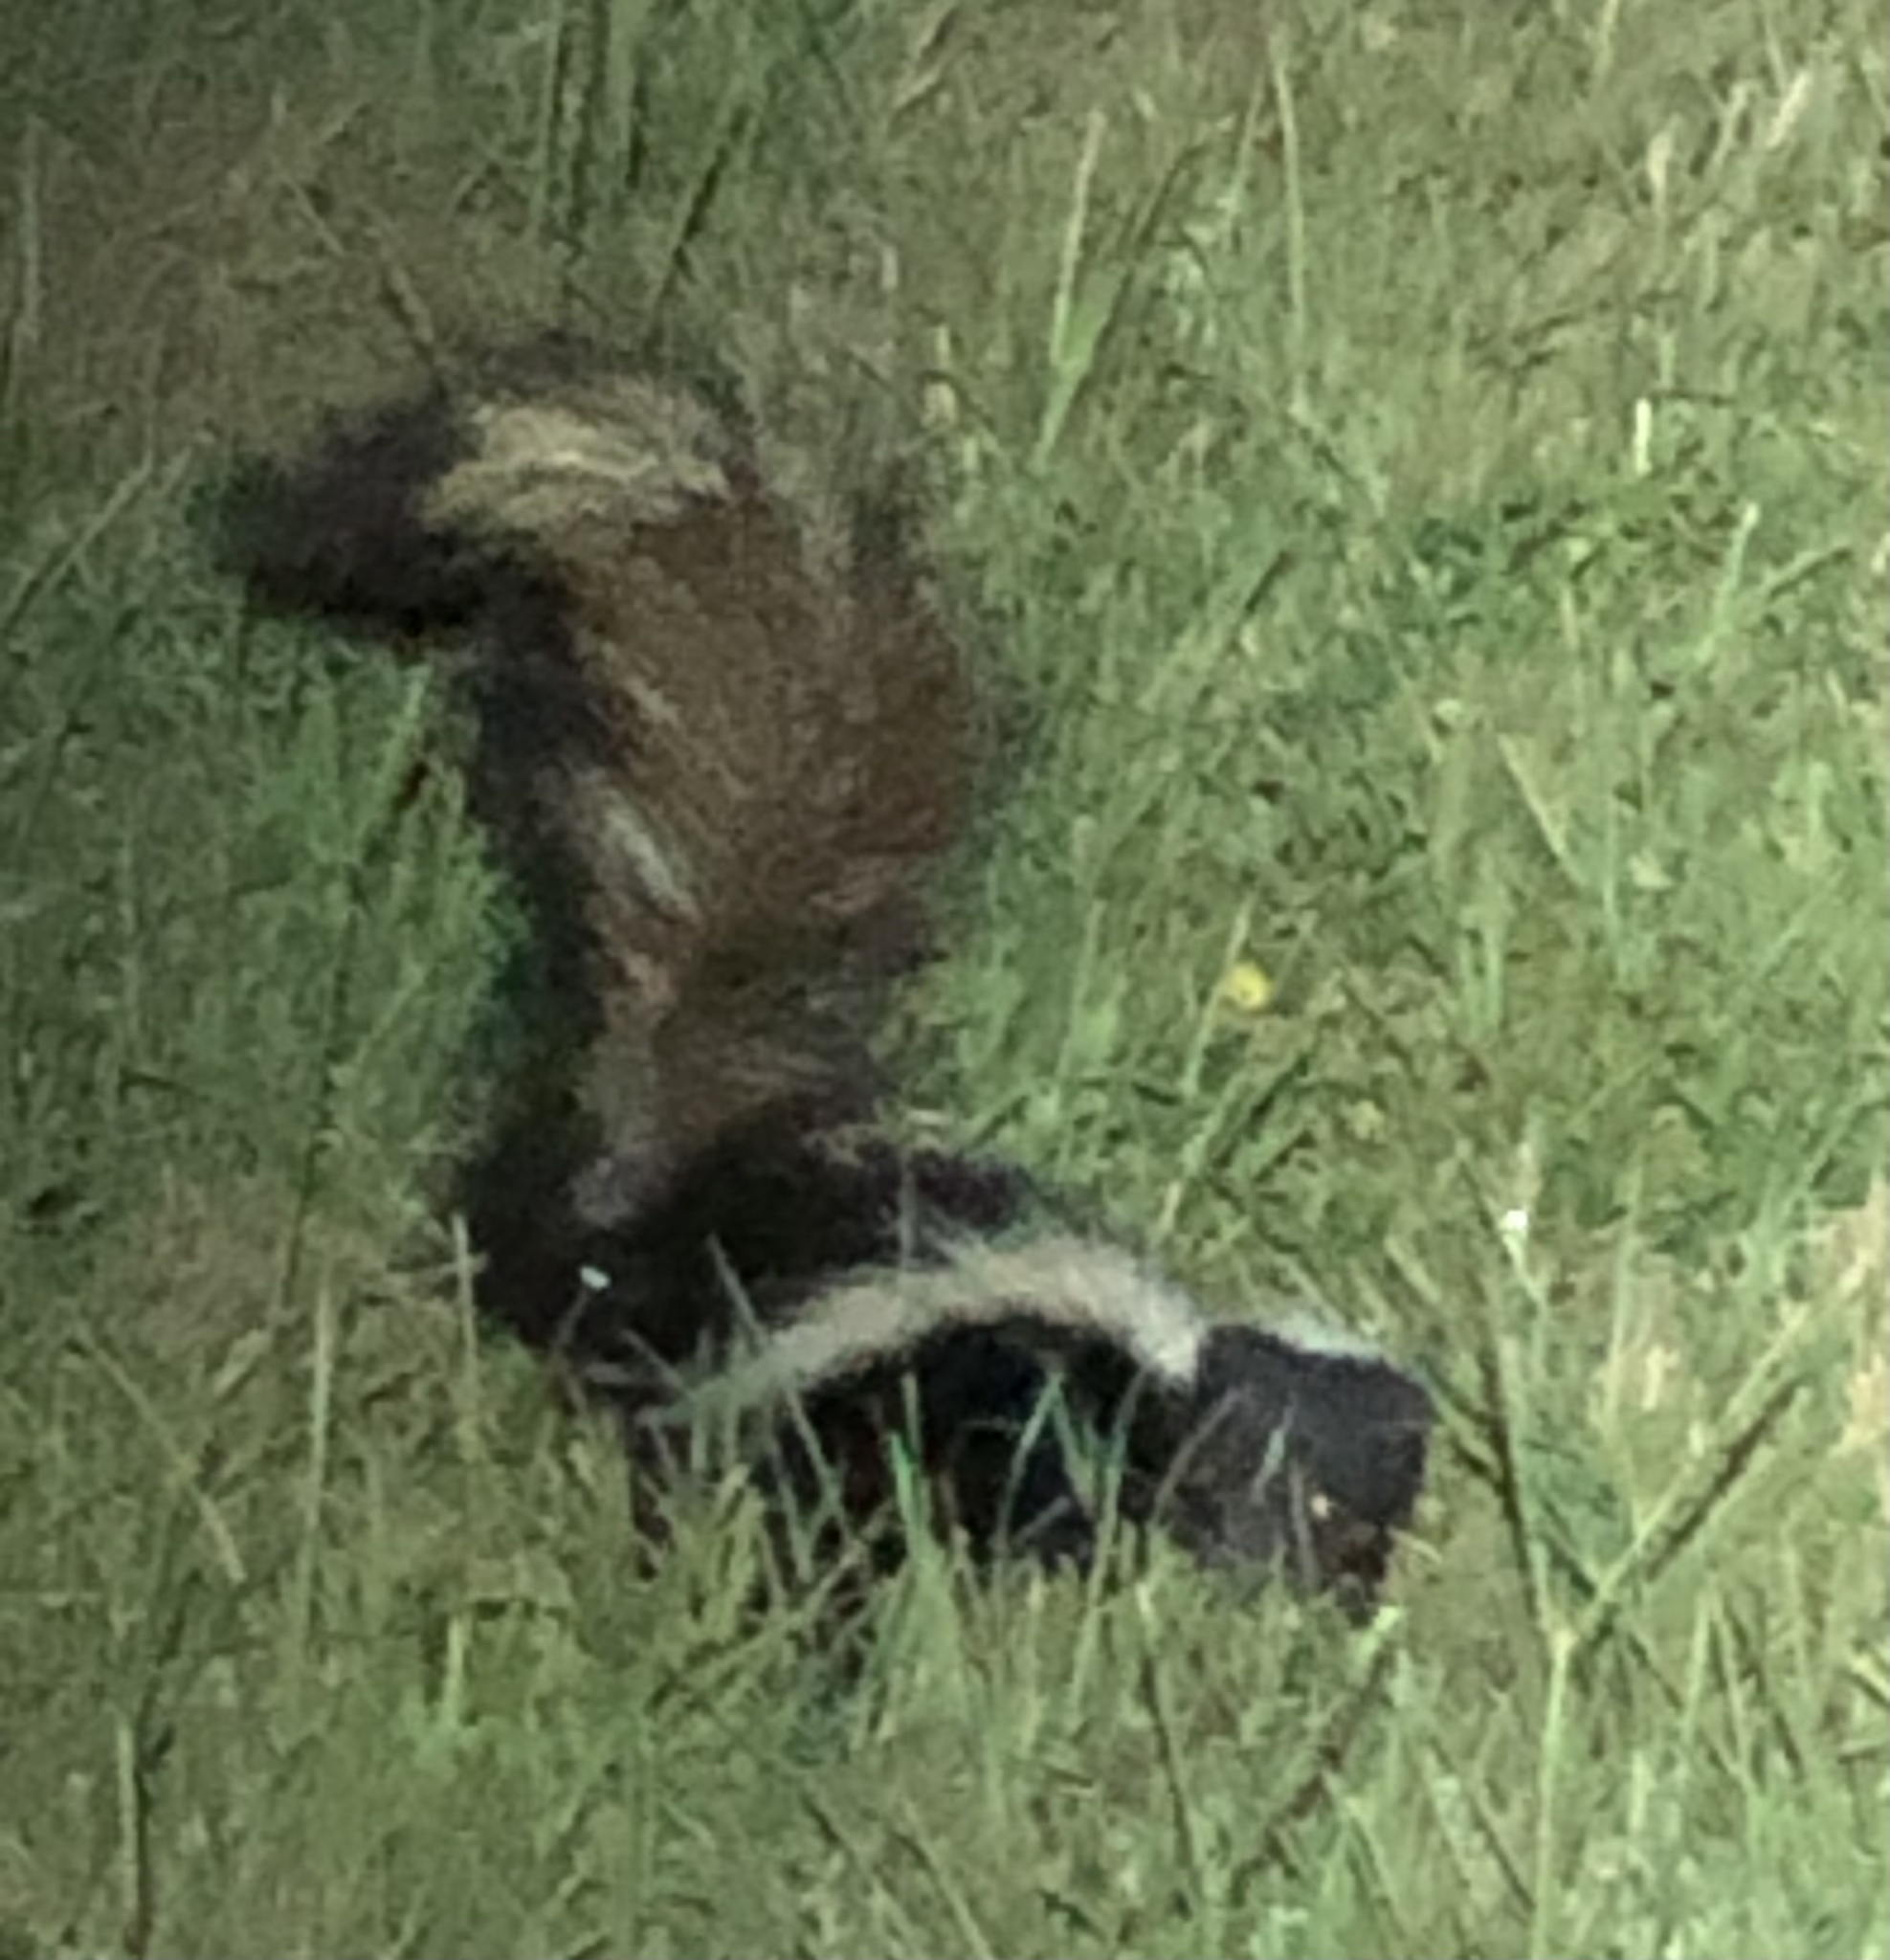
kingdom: Animalia
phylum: Chordata
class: Mammalia
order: Carnivora
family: Mephitidae
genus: Mephitis
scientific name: Mephitis mephitis
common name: Striped skunk
